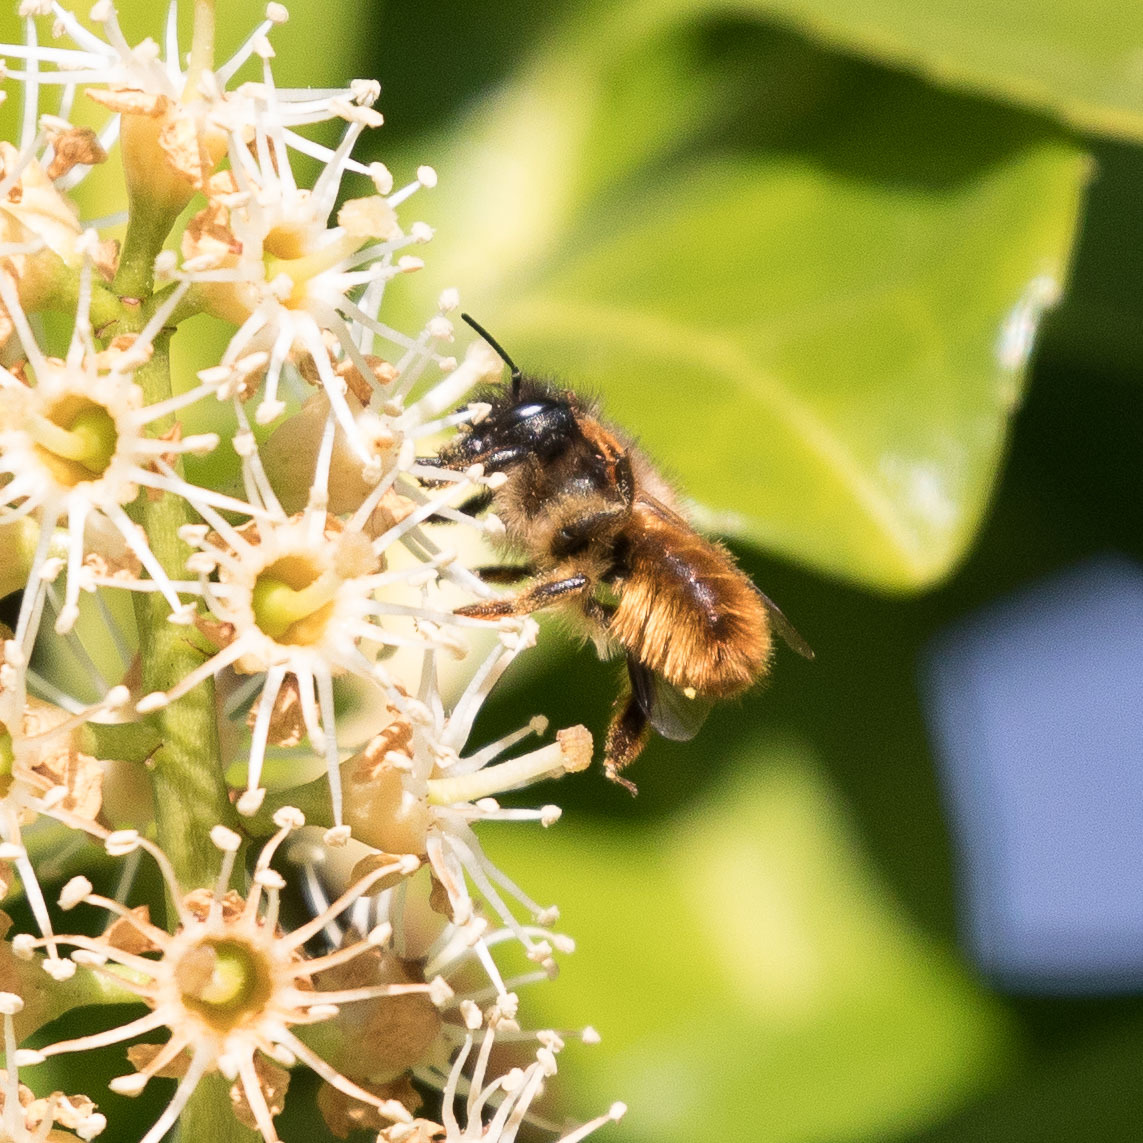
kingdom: Animalia
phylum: Arthropoda
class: Insecta
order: Hymenoptera
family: Megachilidae
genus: Osmia
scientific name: Osmia bicornis
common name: Red mason bee
